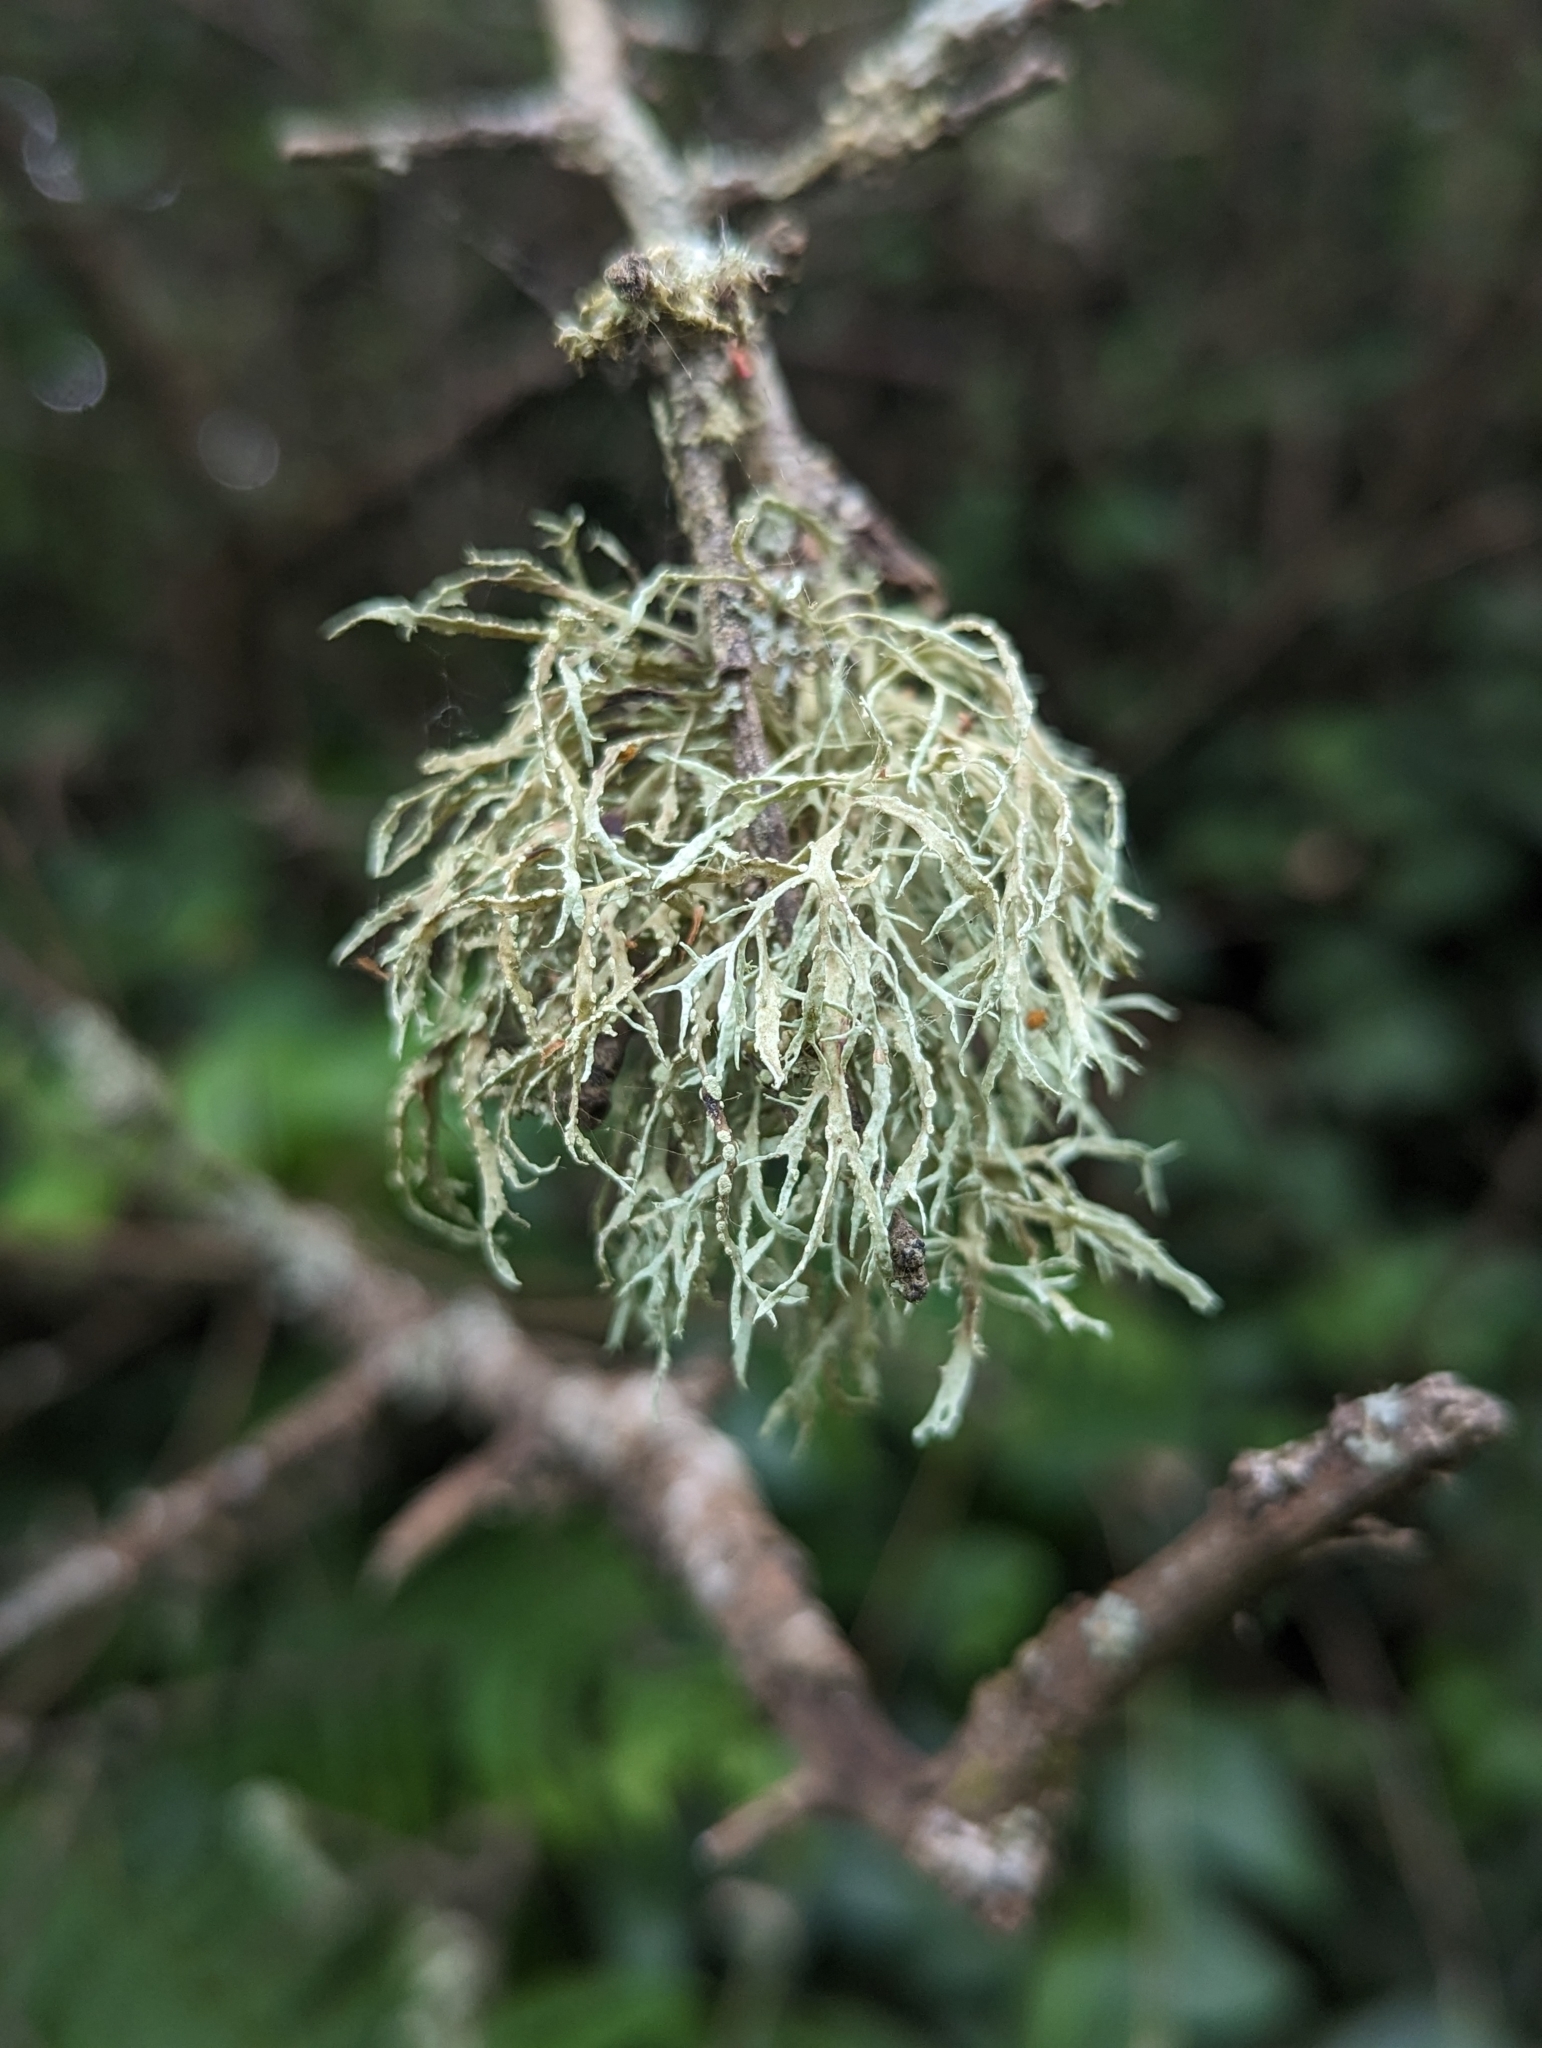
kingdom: Fungi
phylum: Ascomycota
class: Lecanoromycetes
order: Lecanorales
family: Ramalinaceae
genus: Ramalina
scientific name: Ramalina farinacea
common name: Farinose cartilage lichen
